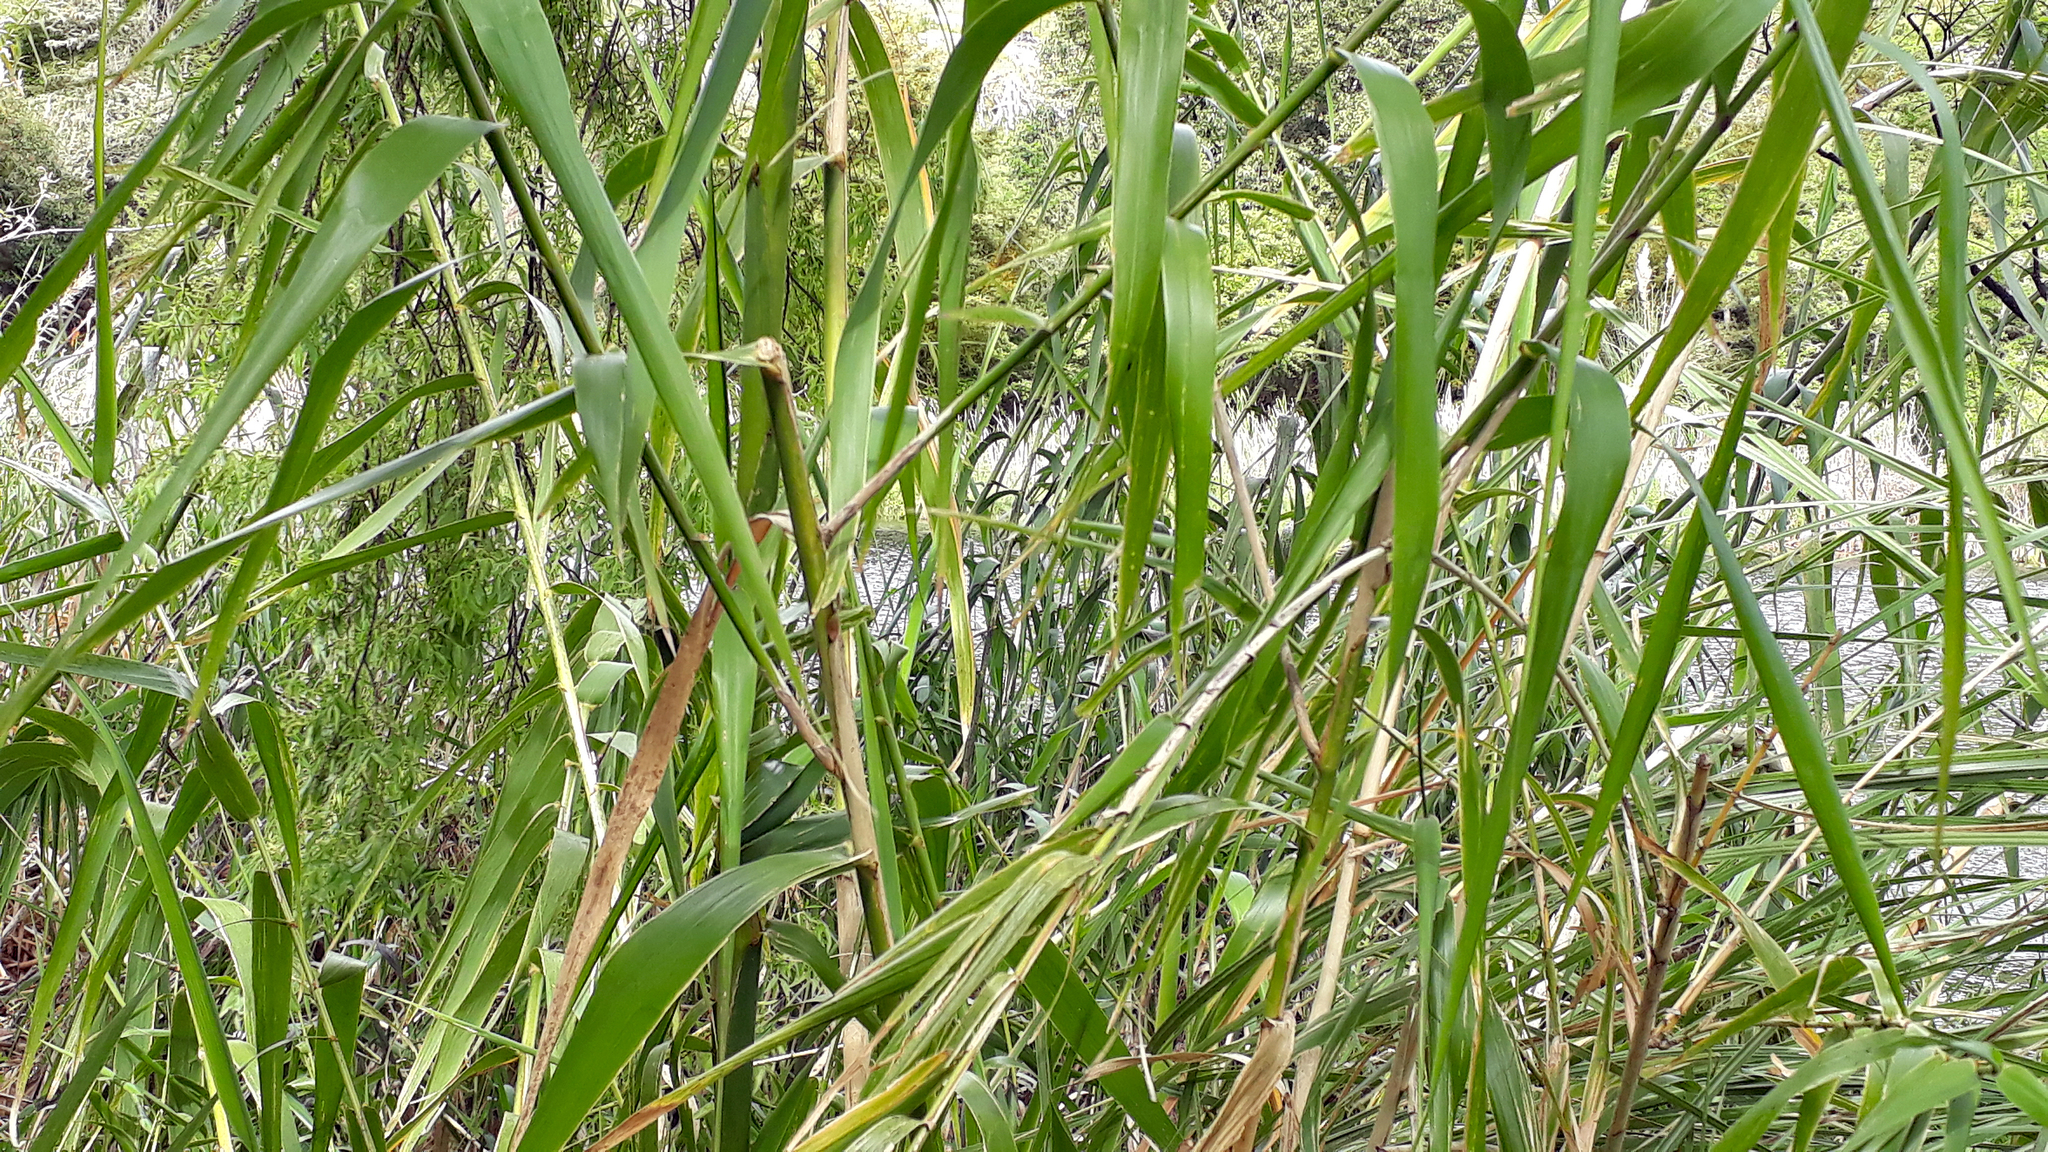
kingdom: Plantae
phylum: Tracheophyta
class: Liliopsida
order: Poales
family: Poaceae
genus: Arundo
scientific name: Arundo donax
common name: Giant reed
